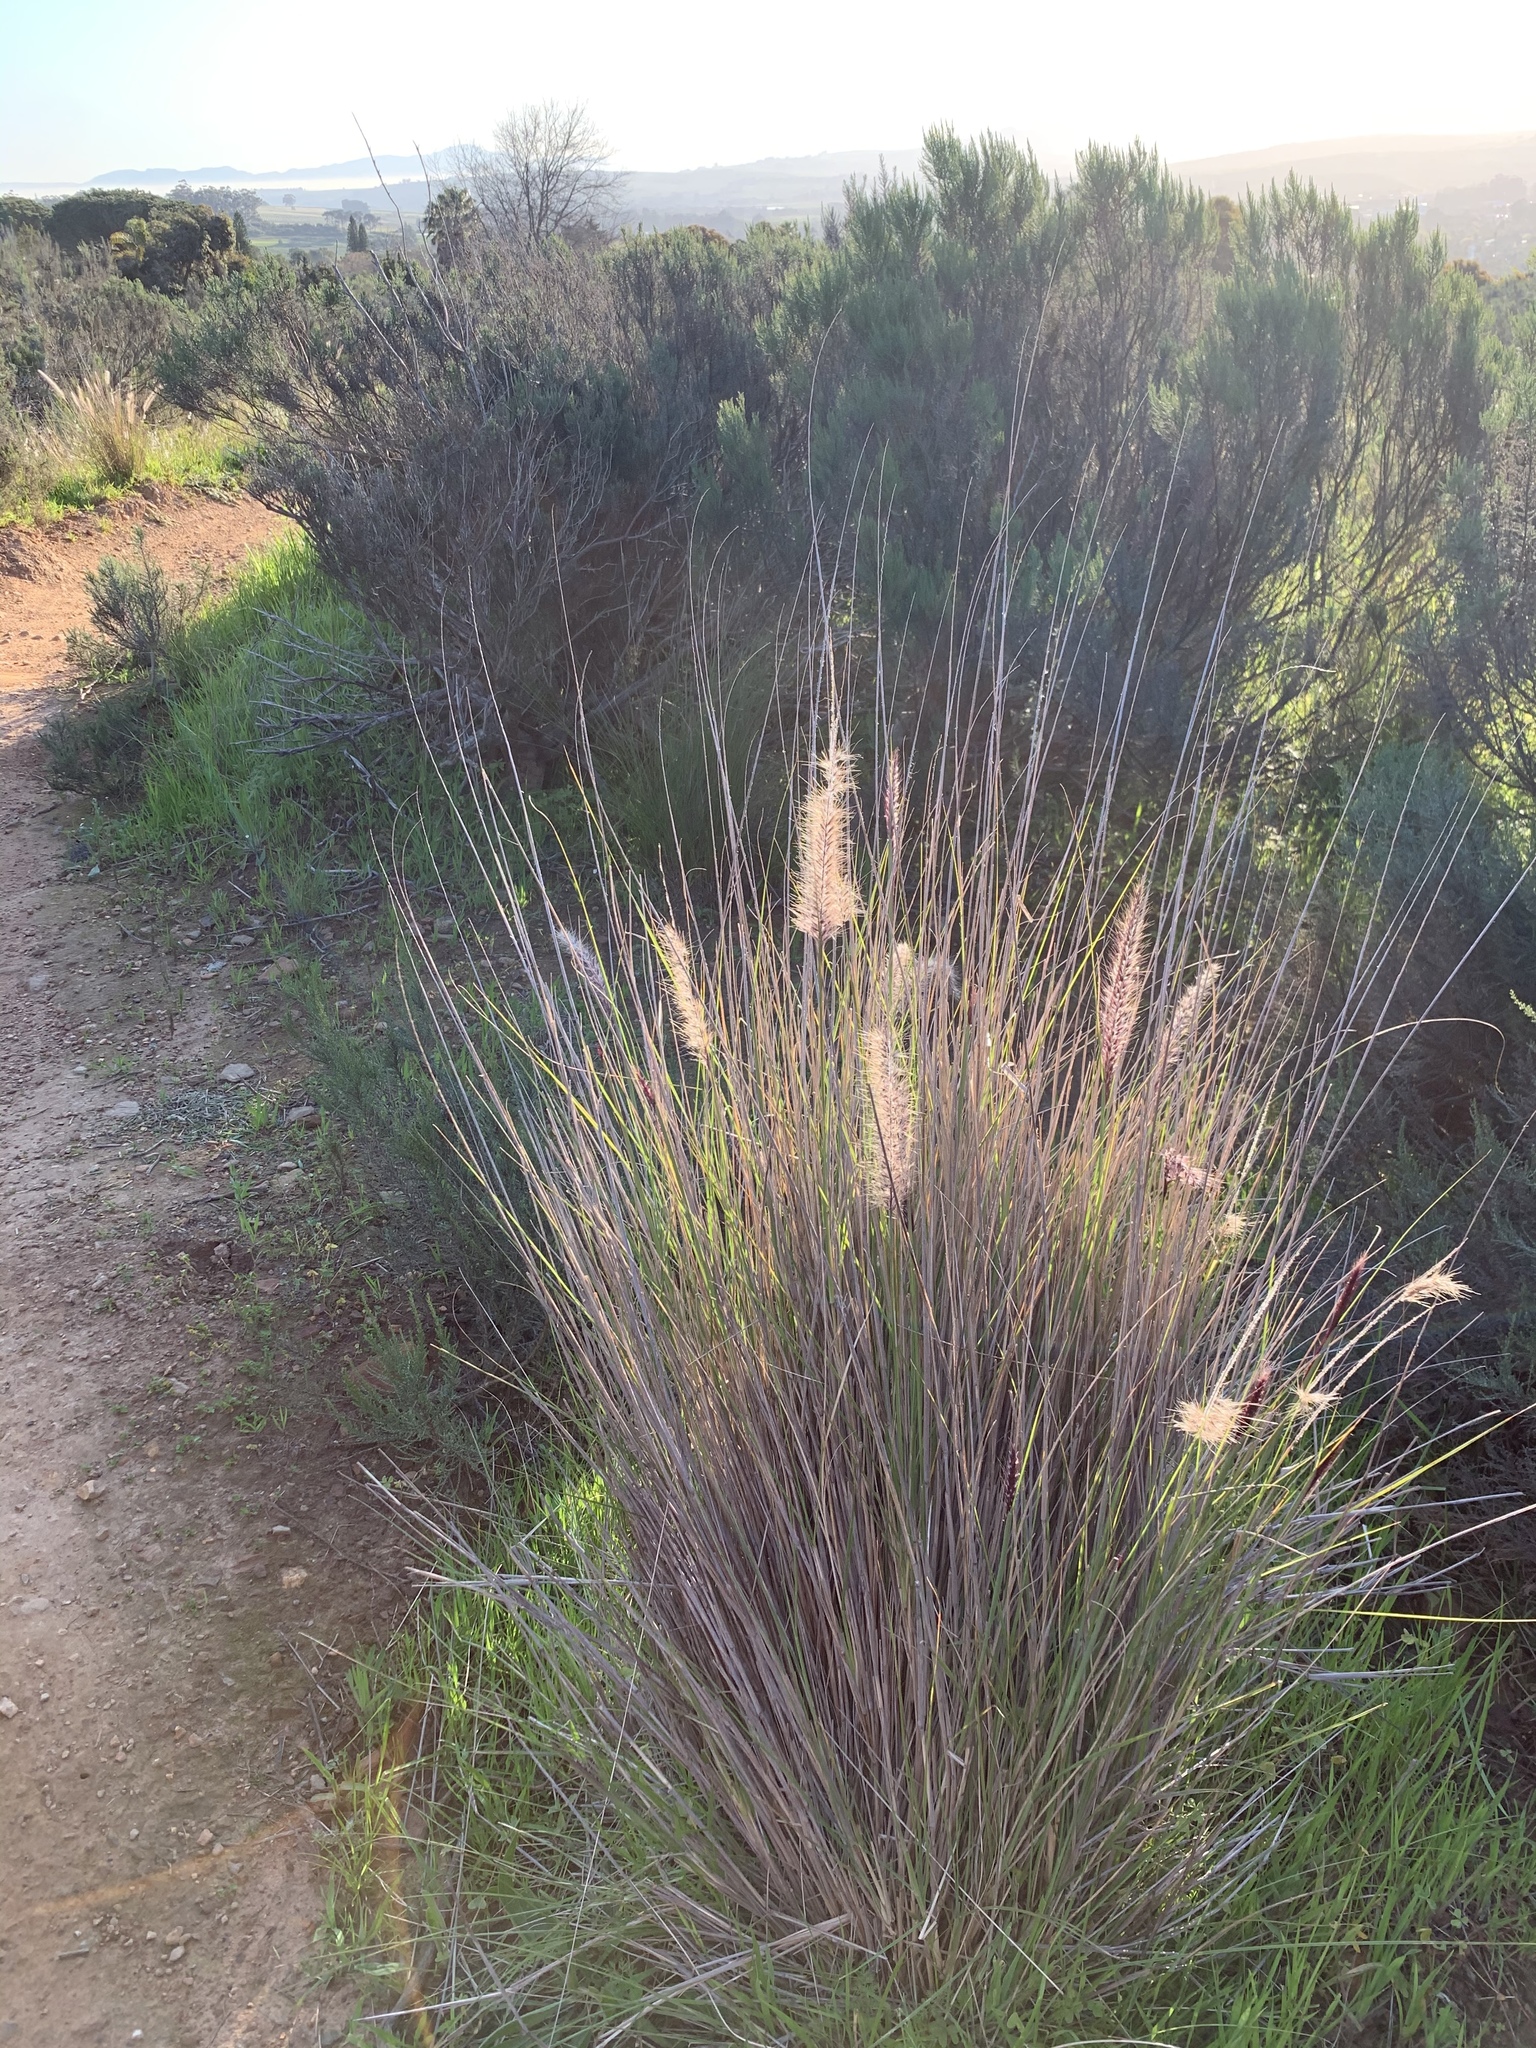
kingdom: Plantae
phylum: Tracheophyta
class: Liliopsida
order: Poales
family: Poaceae
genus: Cenchrus
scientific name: Cenchrus setaceus
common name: Crimson fountaingrass
